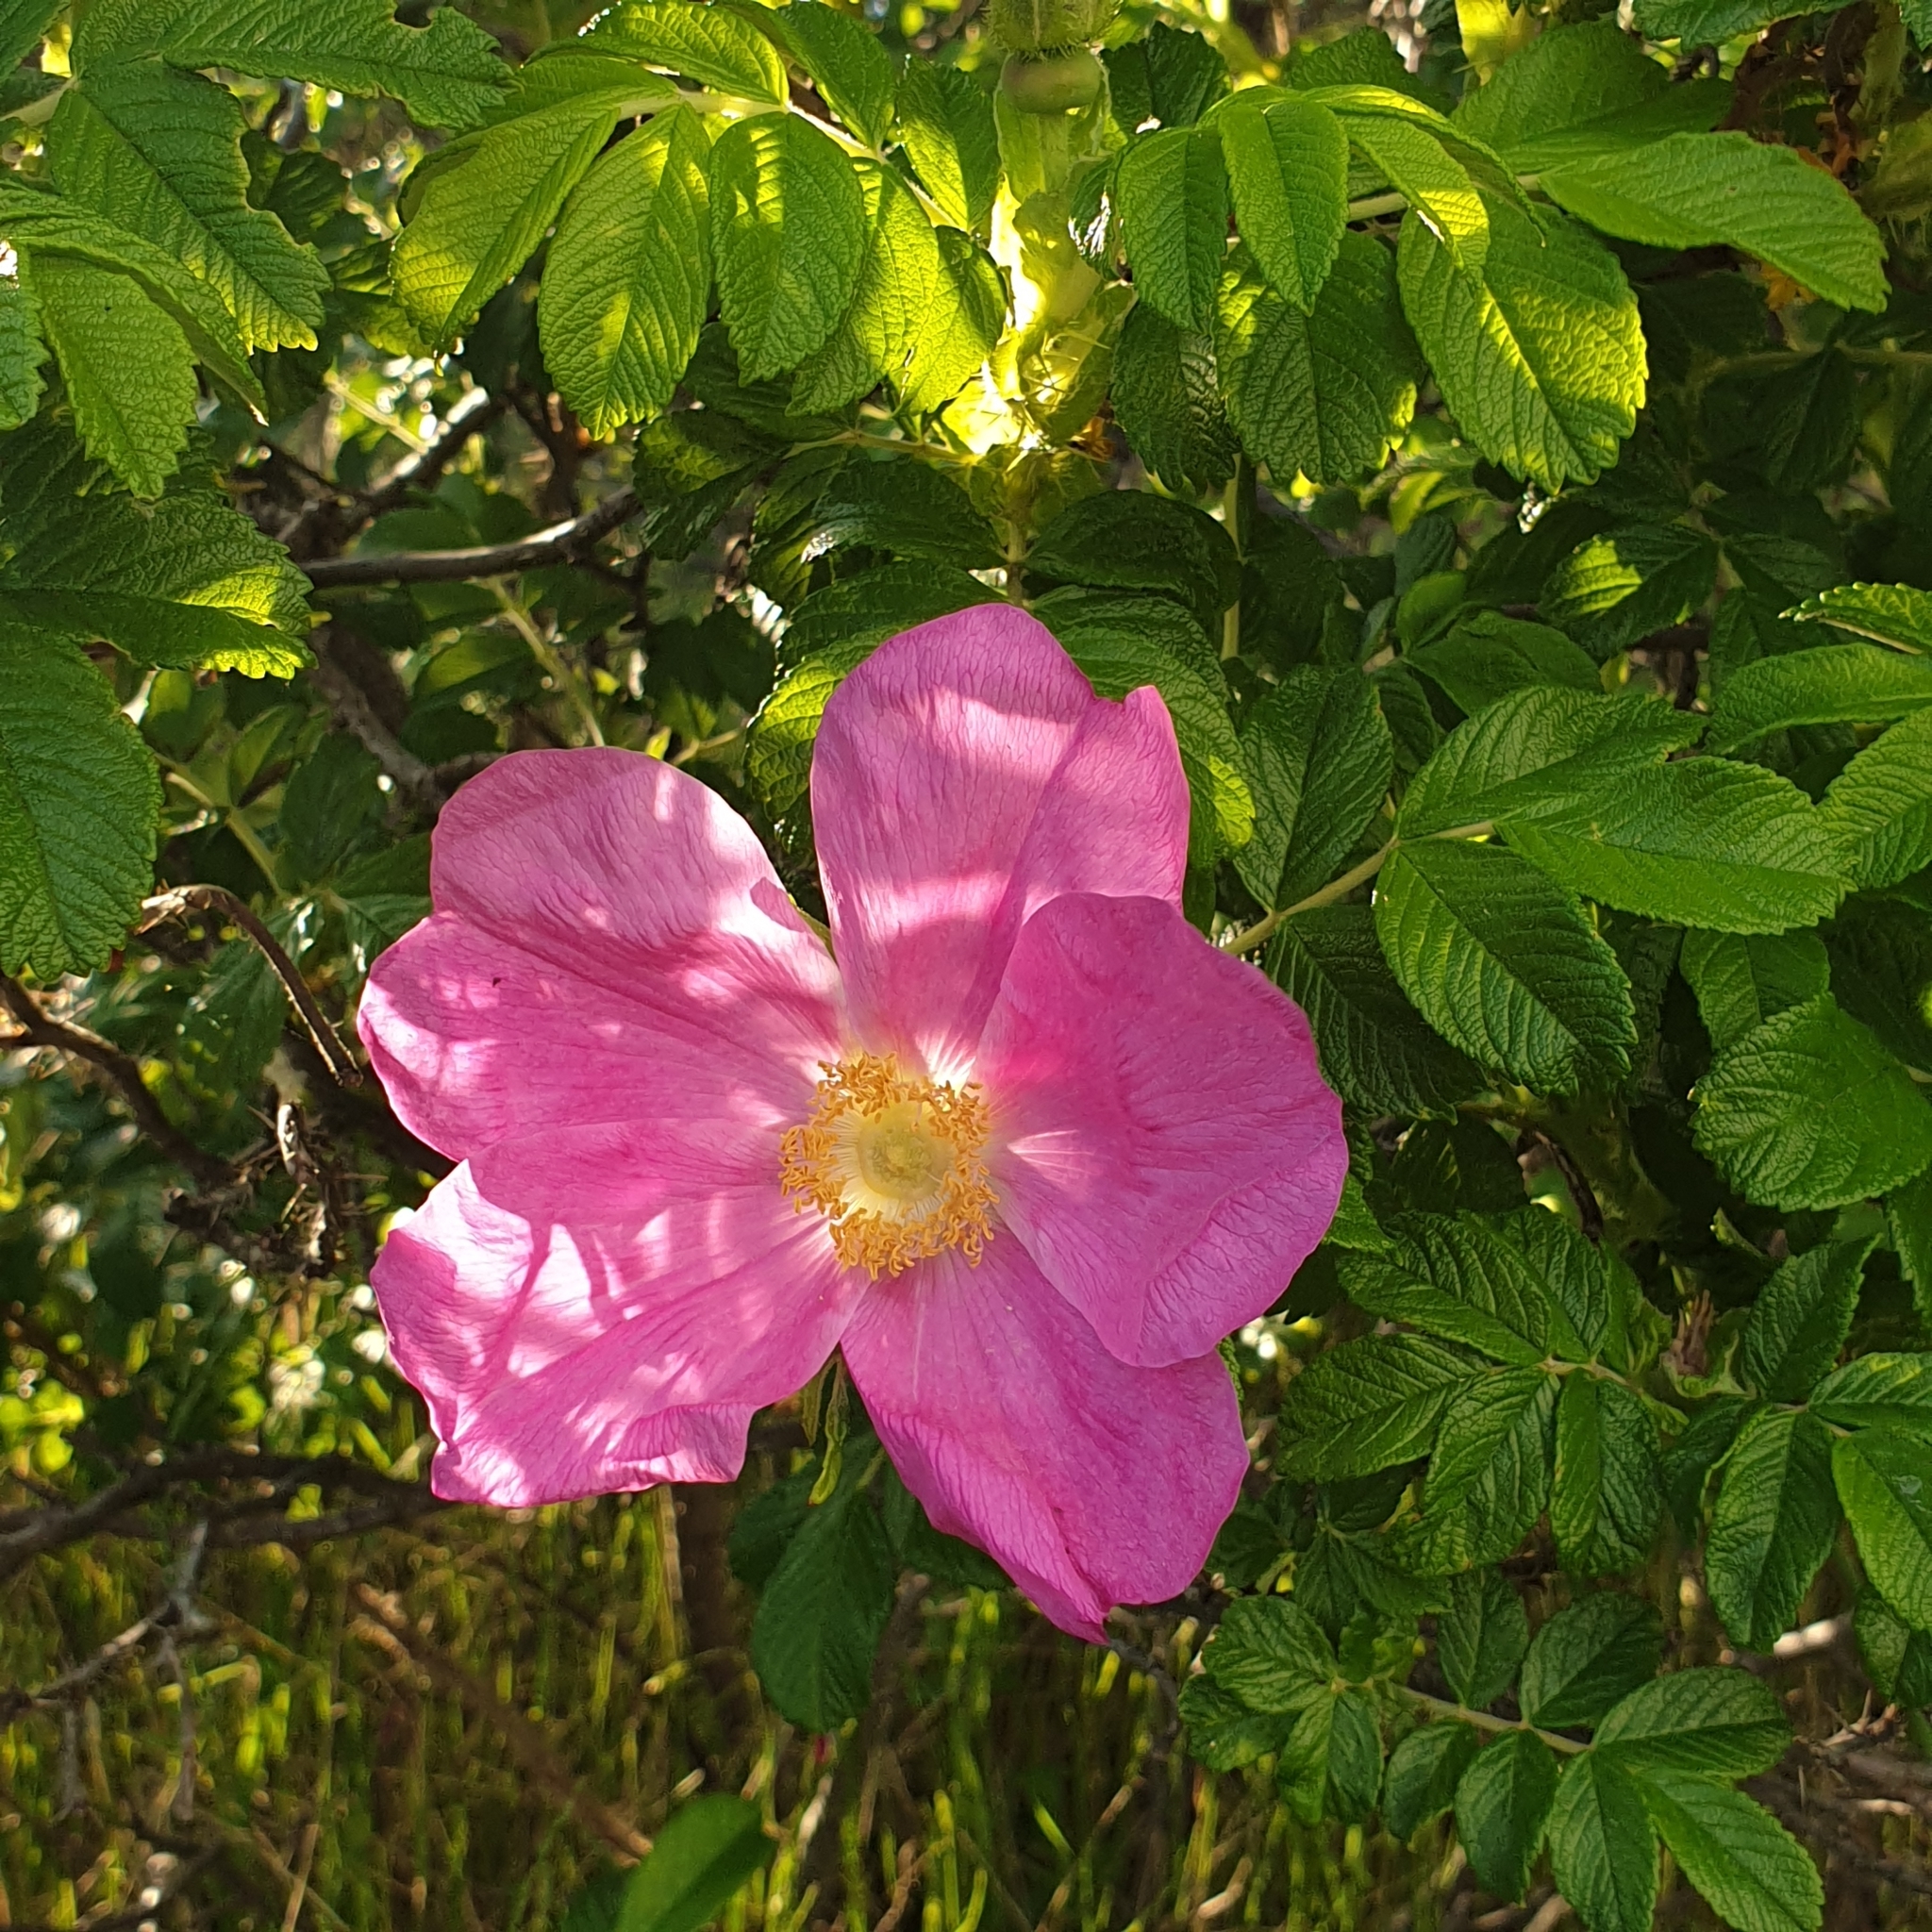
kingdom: Plantae
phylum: Tracheophyta
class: Magnoliopsida
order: Rosales
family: Rosaceae
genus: Rosa
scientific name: Rosa rugosa
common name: Japanese rose
